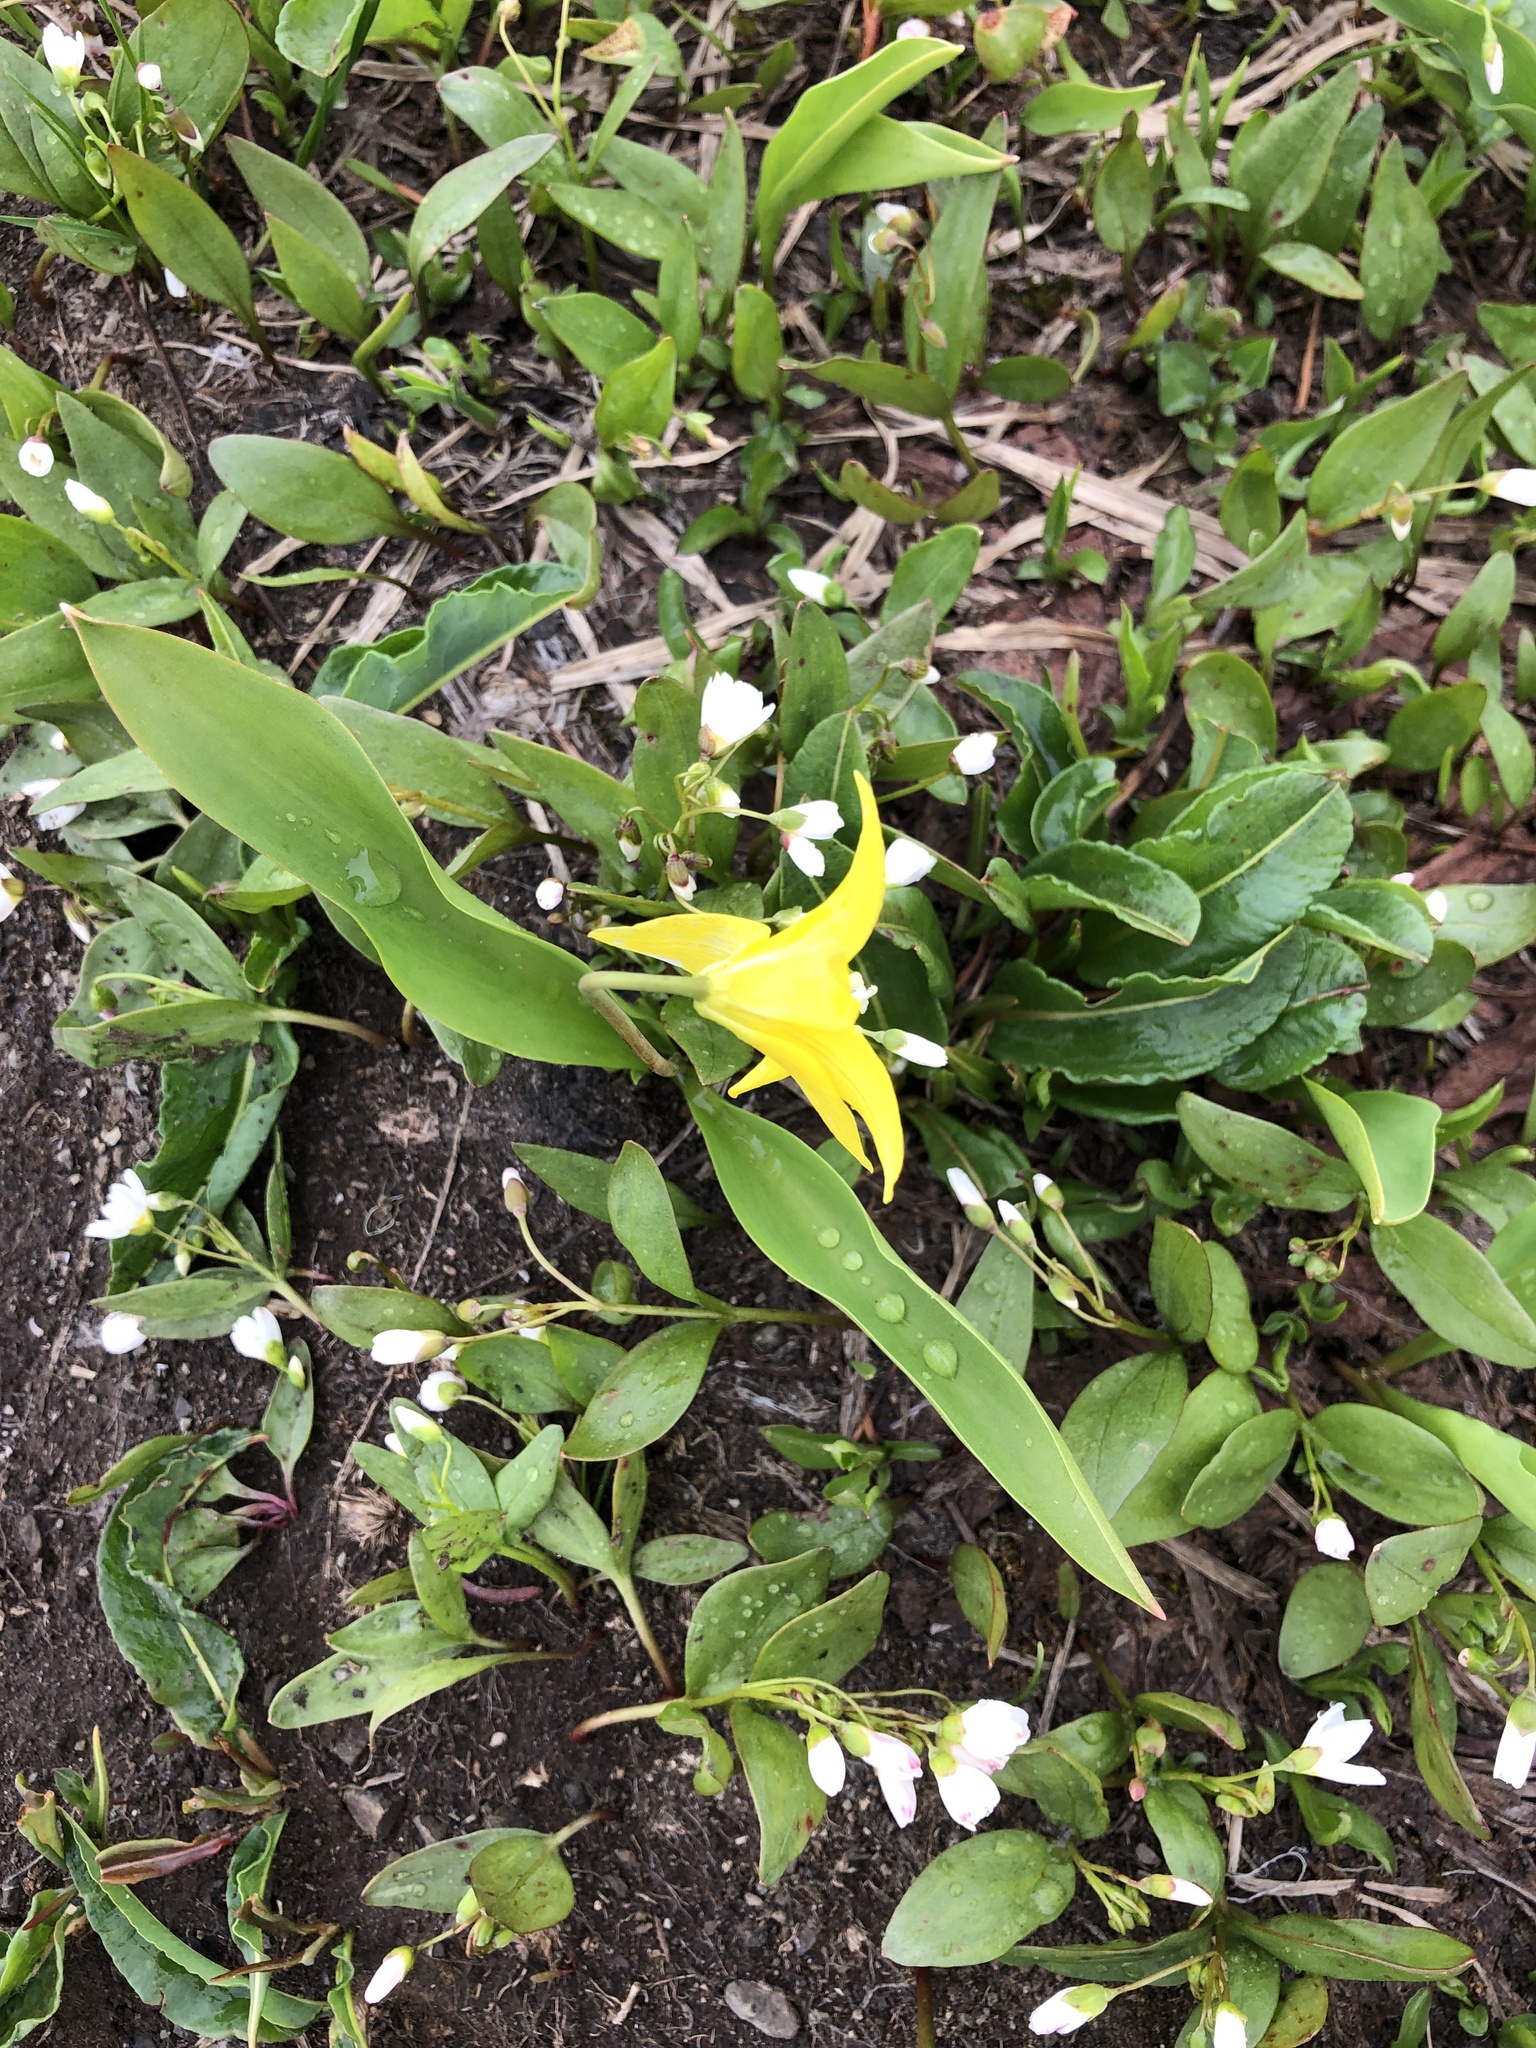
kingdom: Plantae
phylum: Tracheophyta
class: Liliopsida
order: Liliales
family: Liliaceae
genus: Erythronium
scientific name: Erythronium grandiflorum
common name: Avalanche-lily
